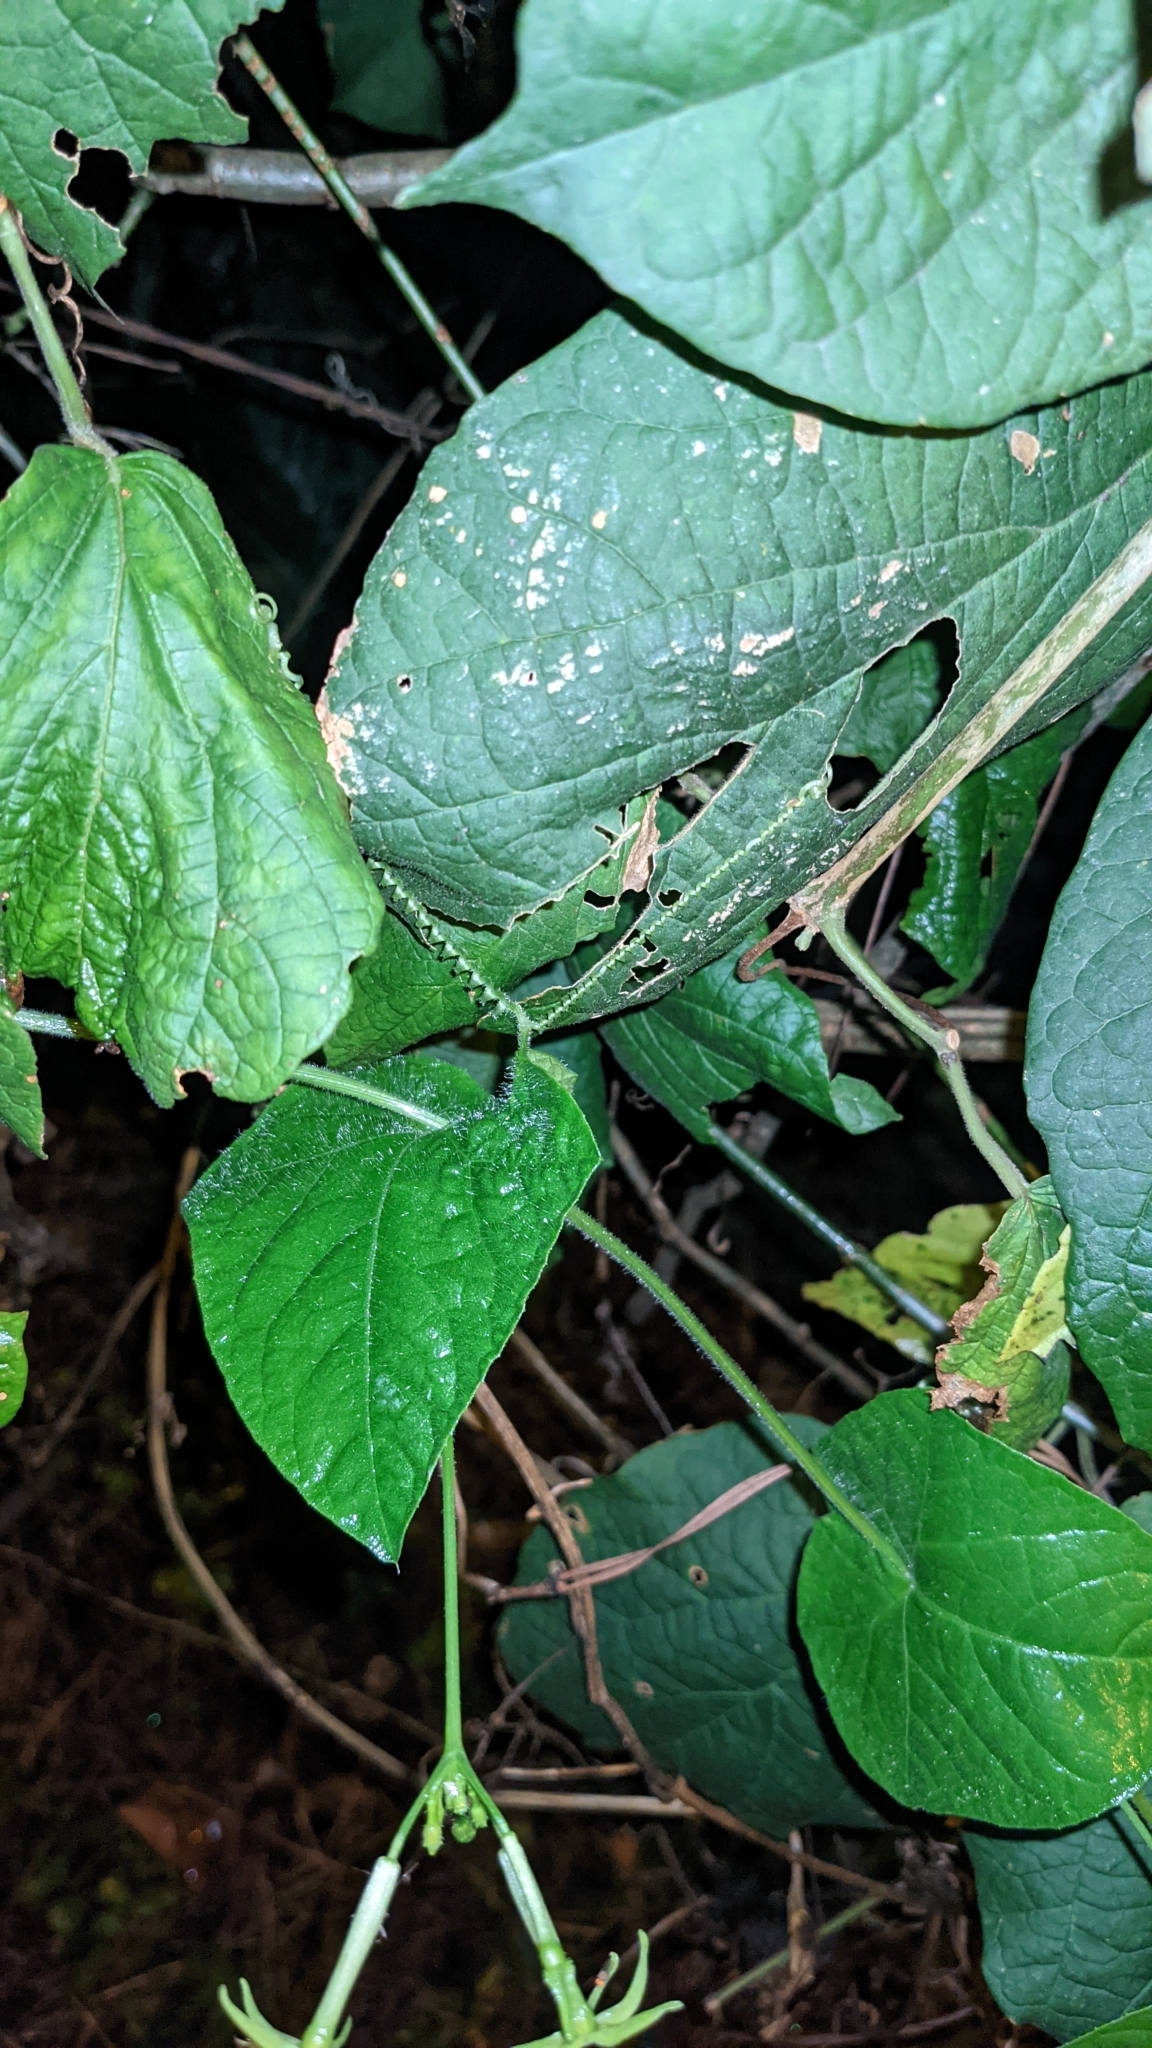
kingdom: Plantae
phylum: Tracheophyta
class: Magnoliopsida
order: Cucurbitales
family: Cucurbitaceae
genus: Cyclanthera
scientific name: Cyclanthera carthagenensis
